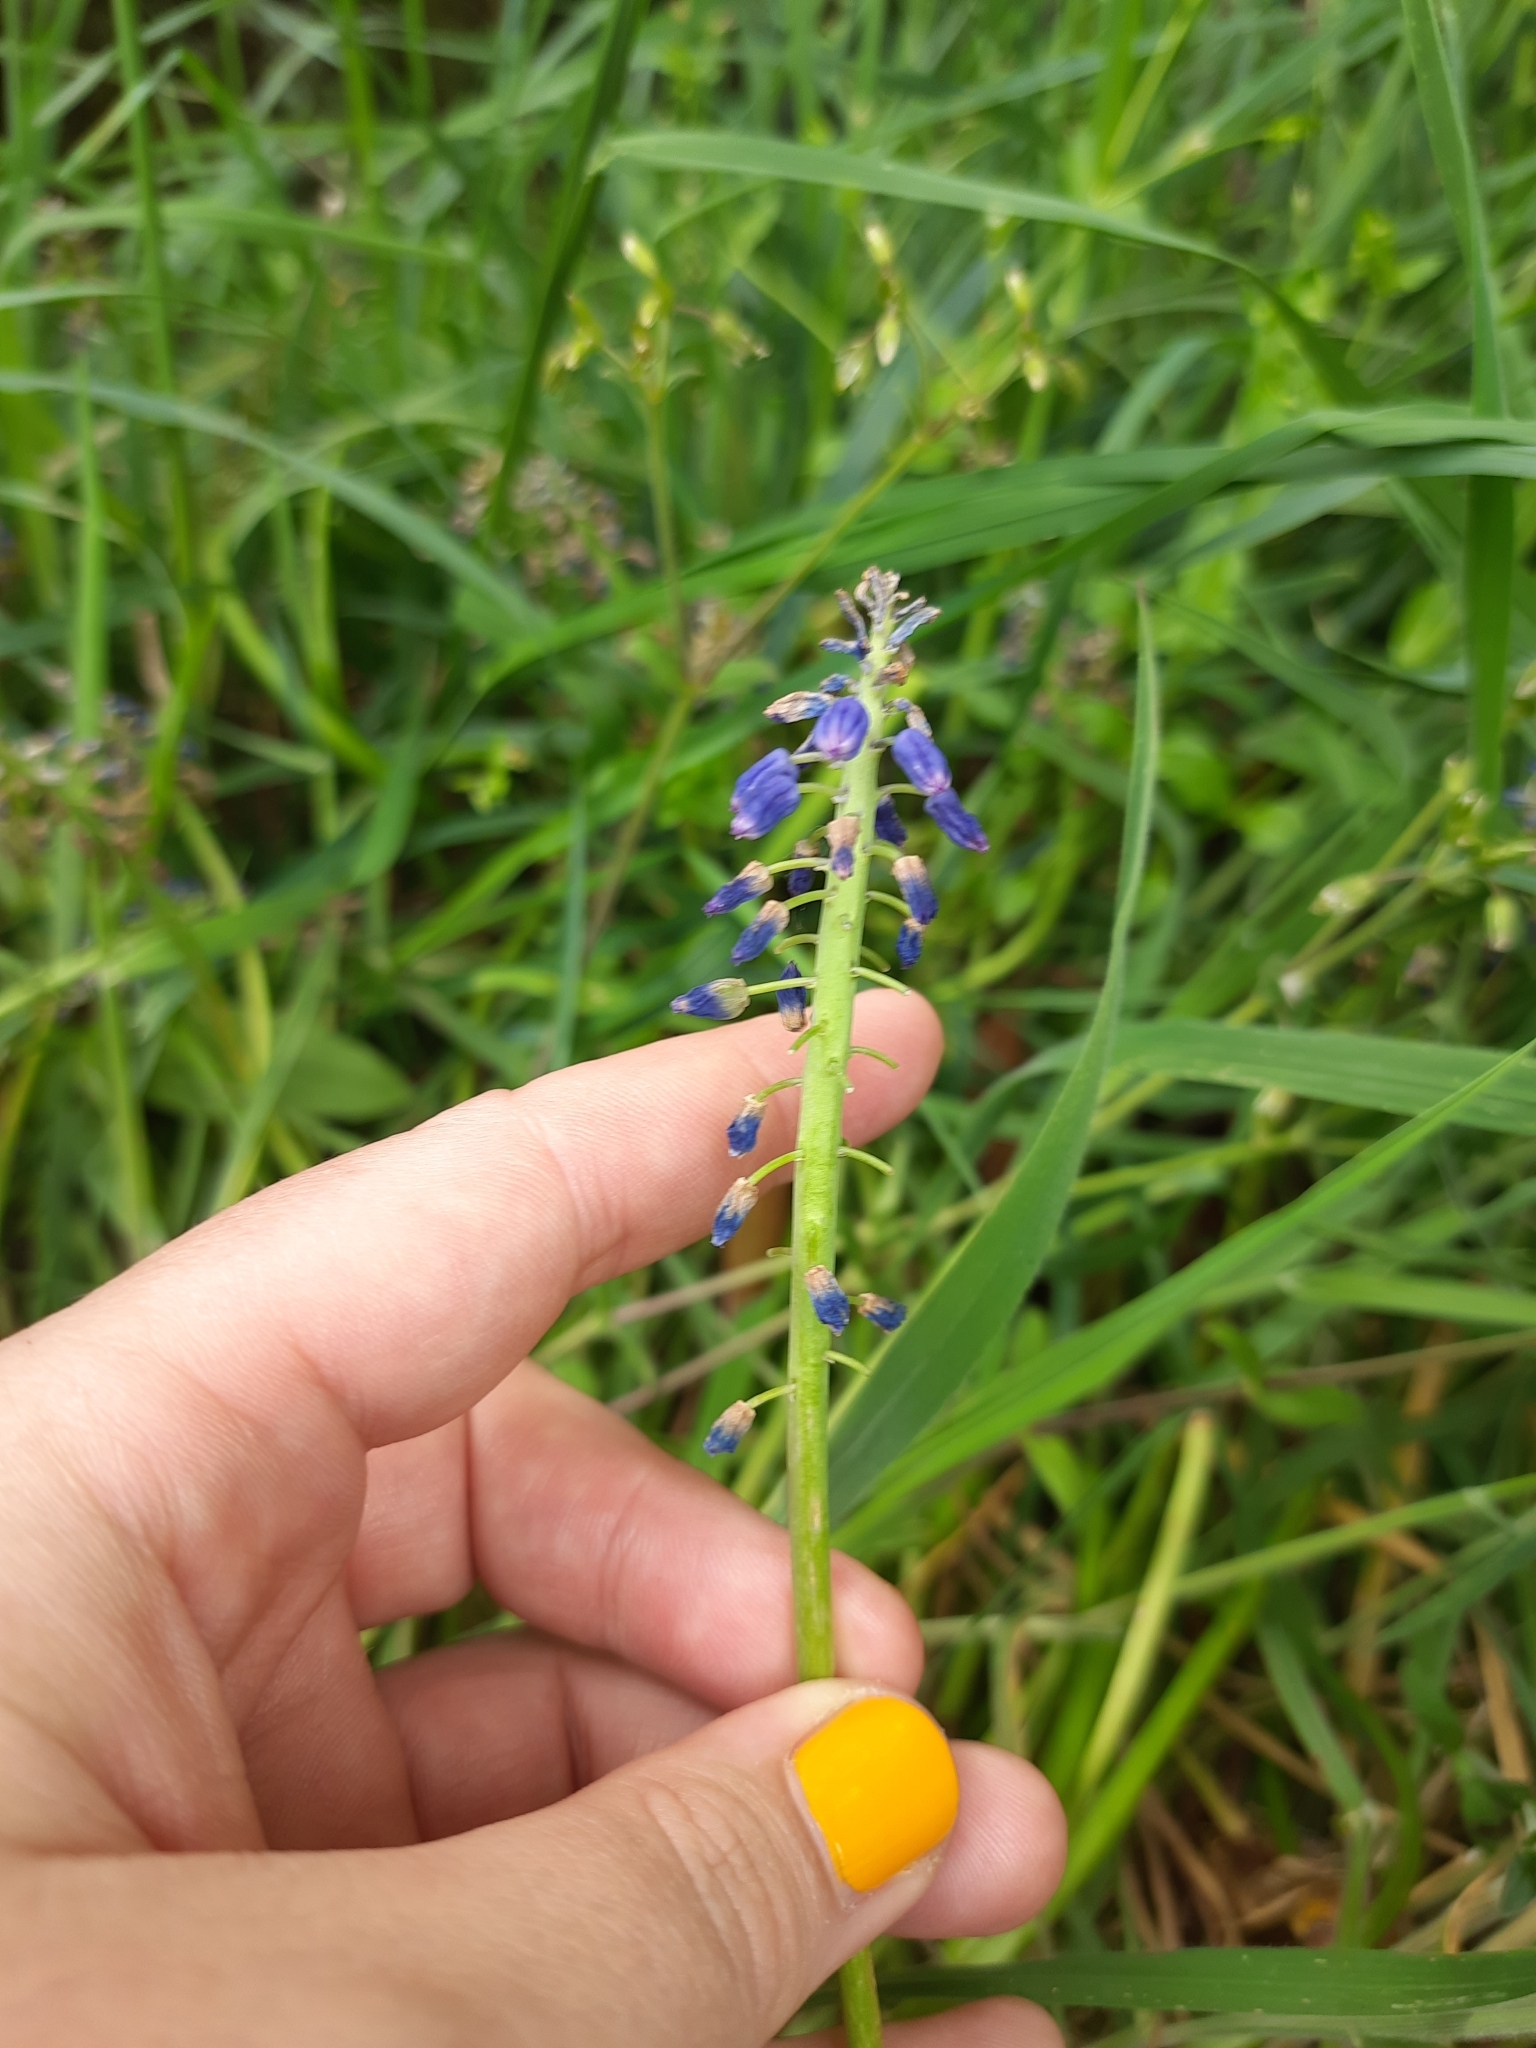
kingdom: Plantae
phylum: Tracheophyta
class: Liliopsida
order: Asparagales
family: Asparagaceae
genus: Muscari
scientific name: Muscari armeniacum
